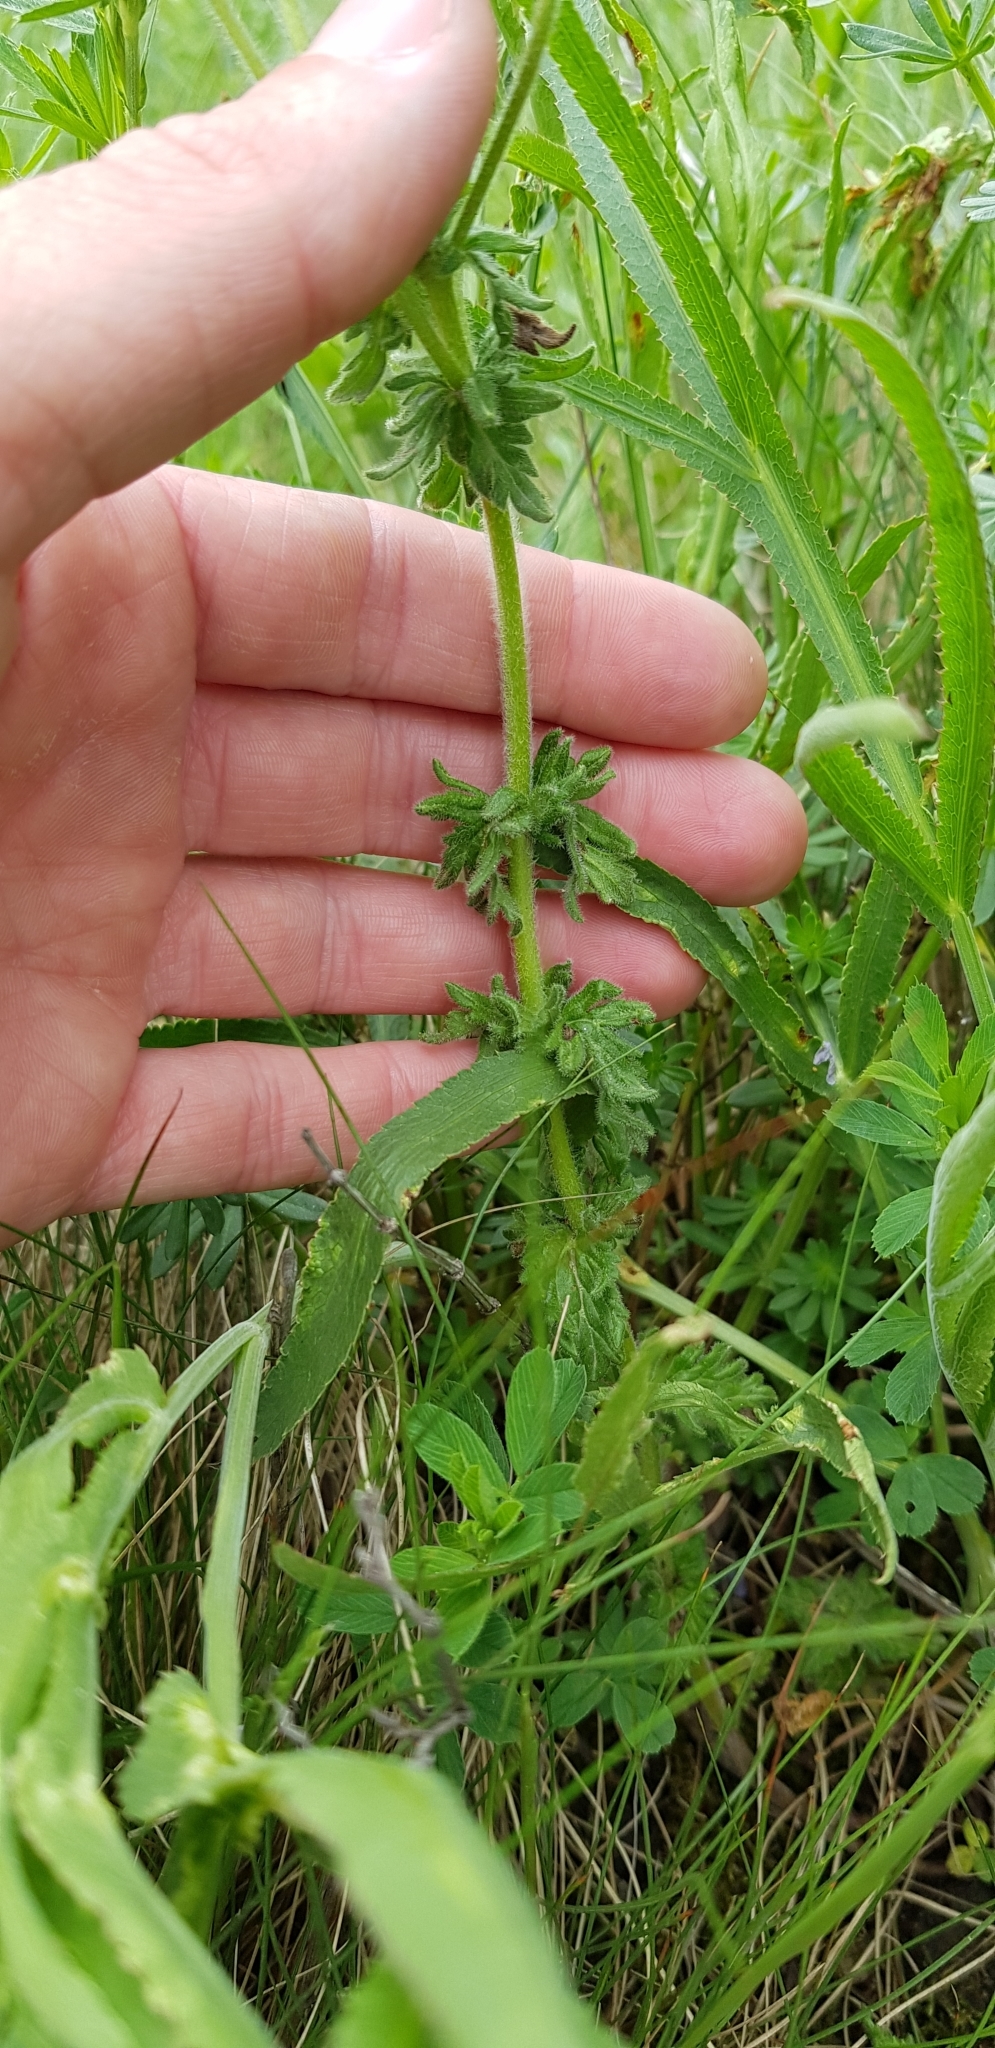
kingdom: Plantae
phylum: Tracheophyta
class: Magnoliopsida
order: Lamiales
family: Plantaginaceae
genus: Veronica
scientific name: Veronica austriaca
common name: Large speedwell
